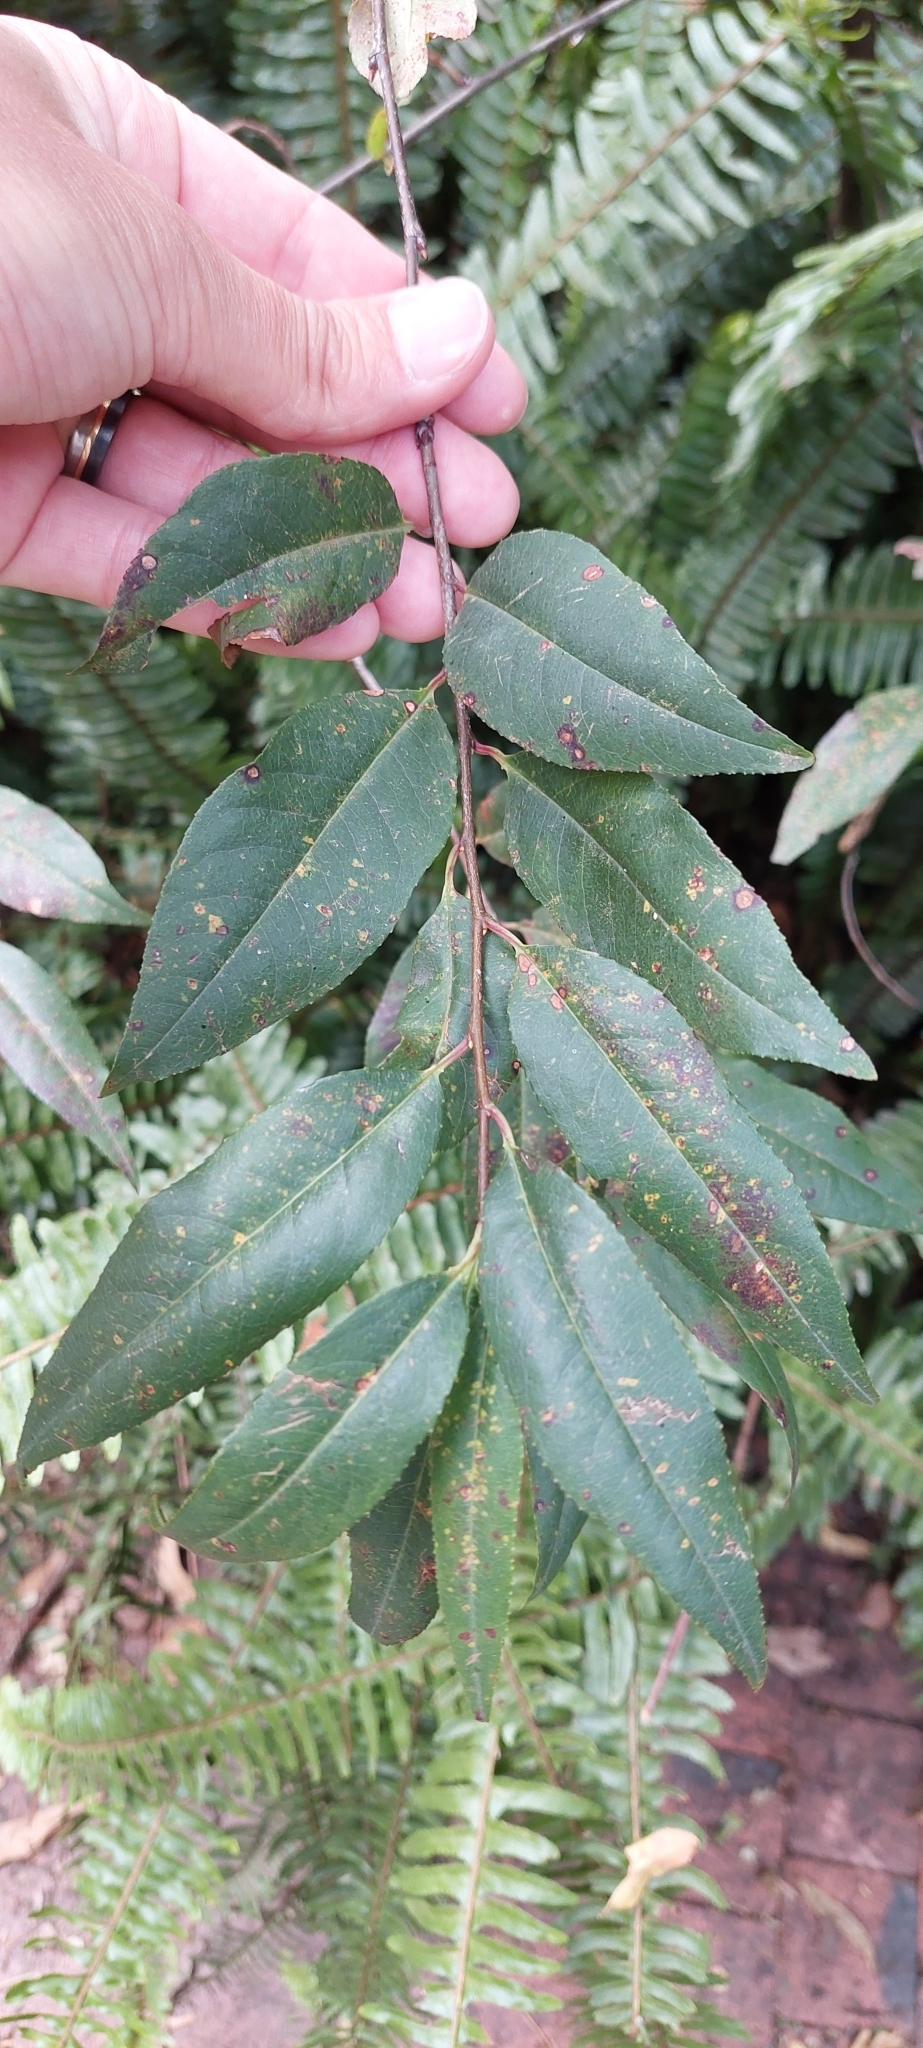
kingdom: Plantae
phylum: Tracheophyta
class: Magnoliopsida
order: Rosales
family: Rosaceae
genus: Prunus
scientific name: Prunus serotina
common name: Black cherry
